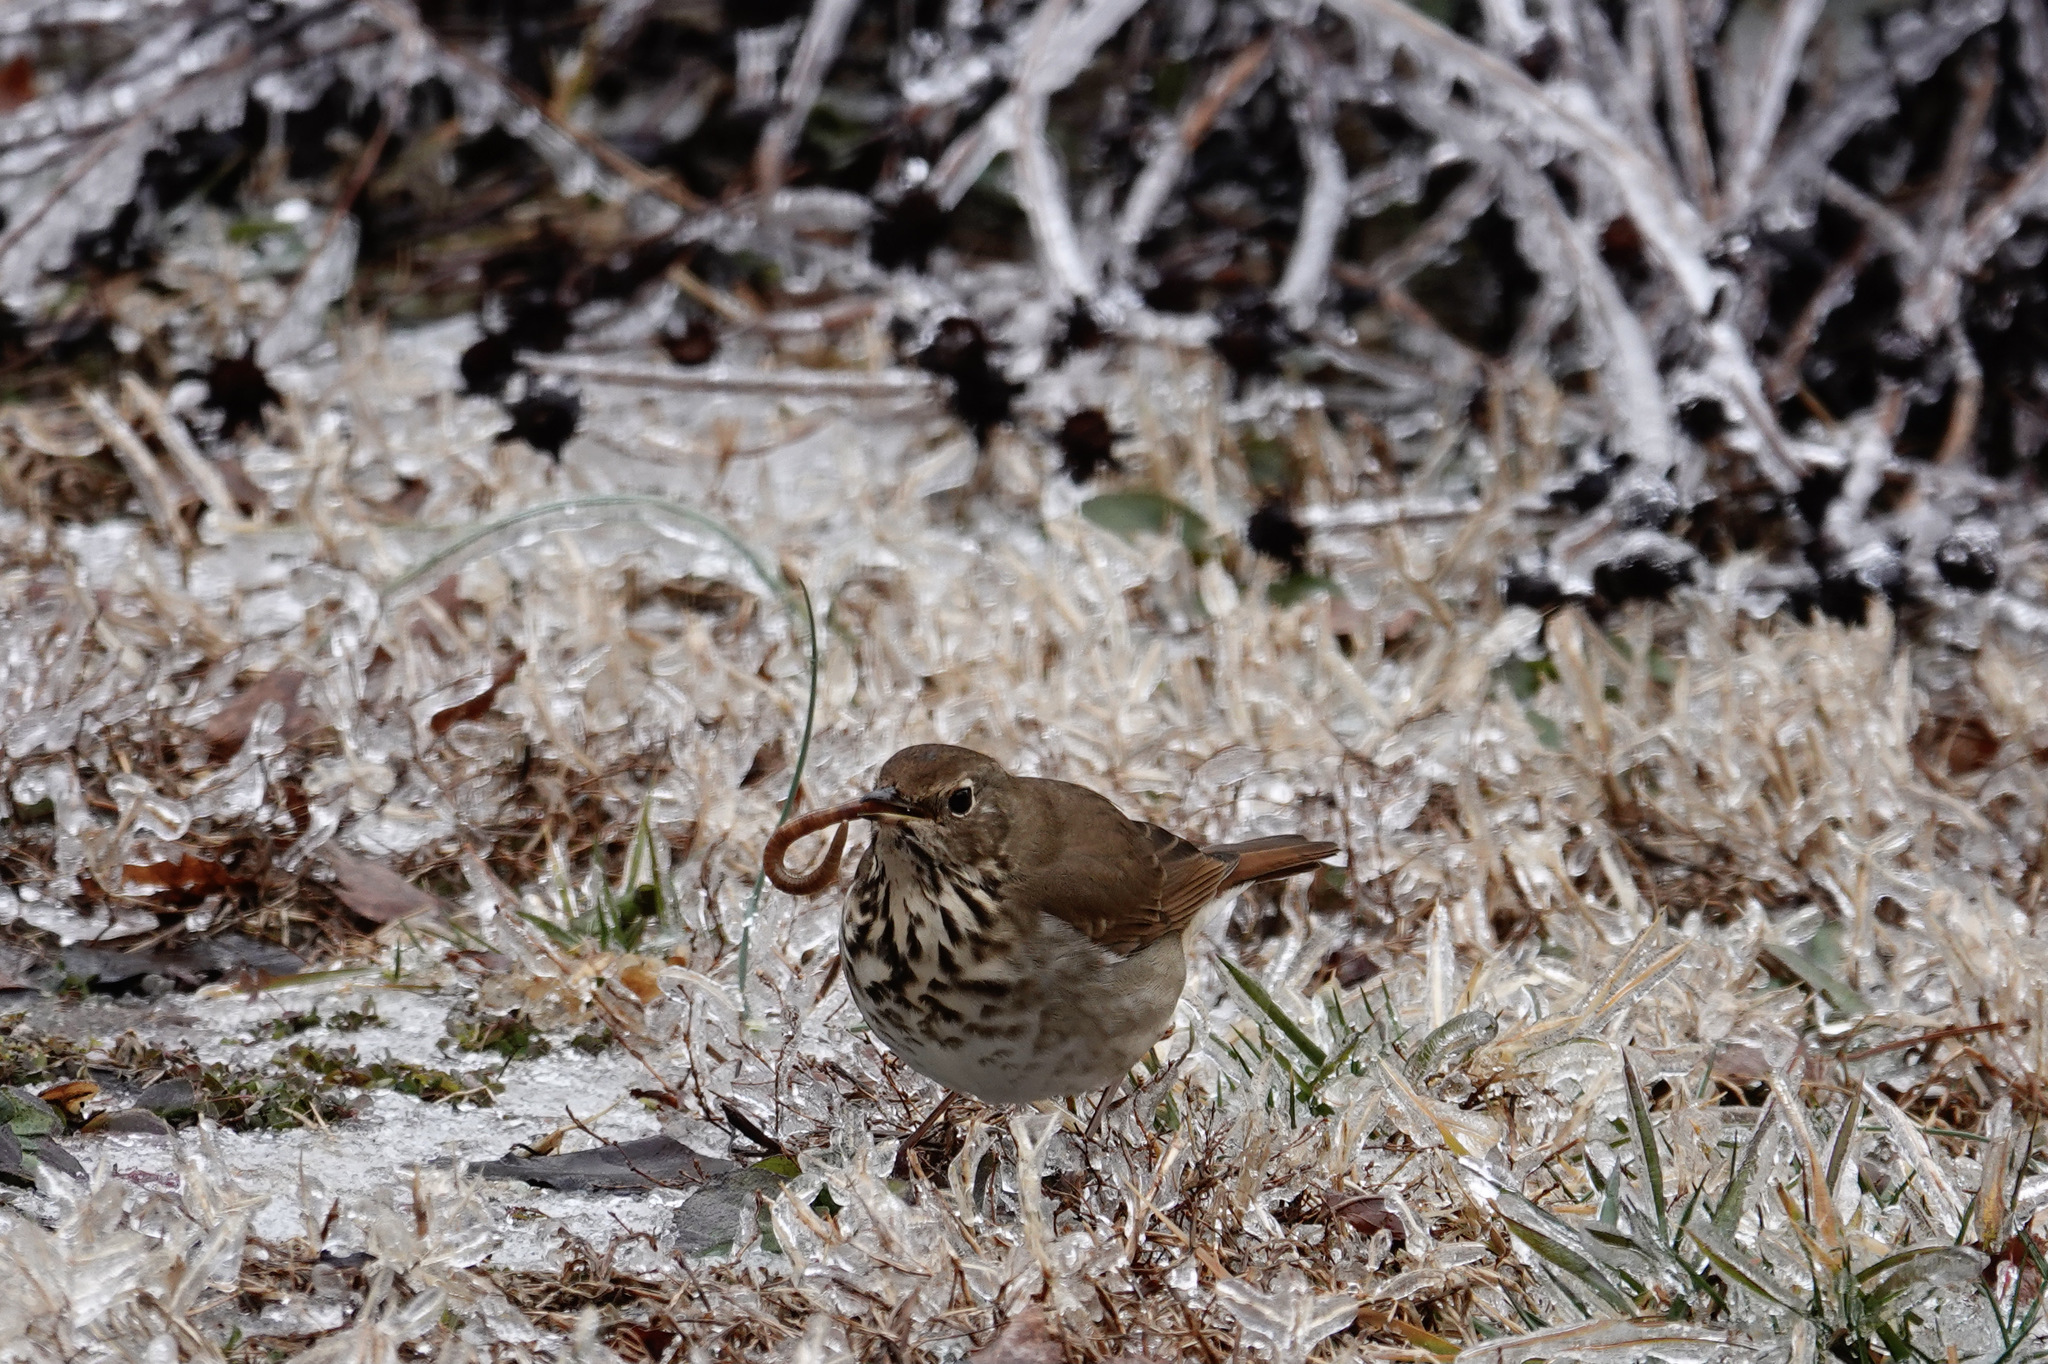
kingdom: Animalia
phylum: Chordata
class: Aves
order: Passeriformes
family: Turdidae
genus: Catharus
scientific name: Catharus guttatus
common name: Hermit thrush
